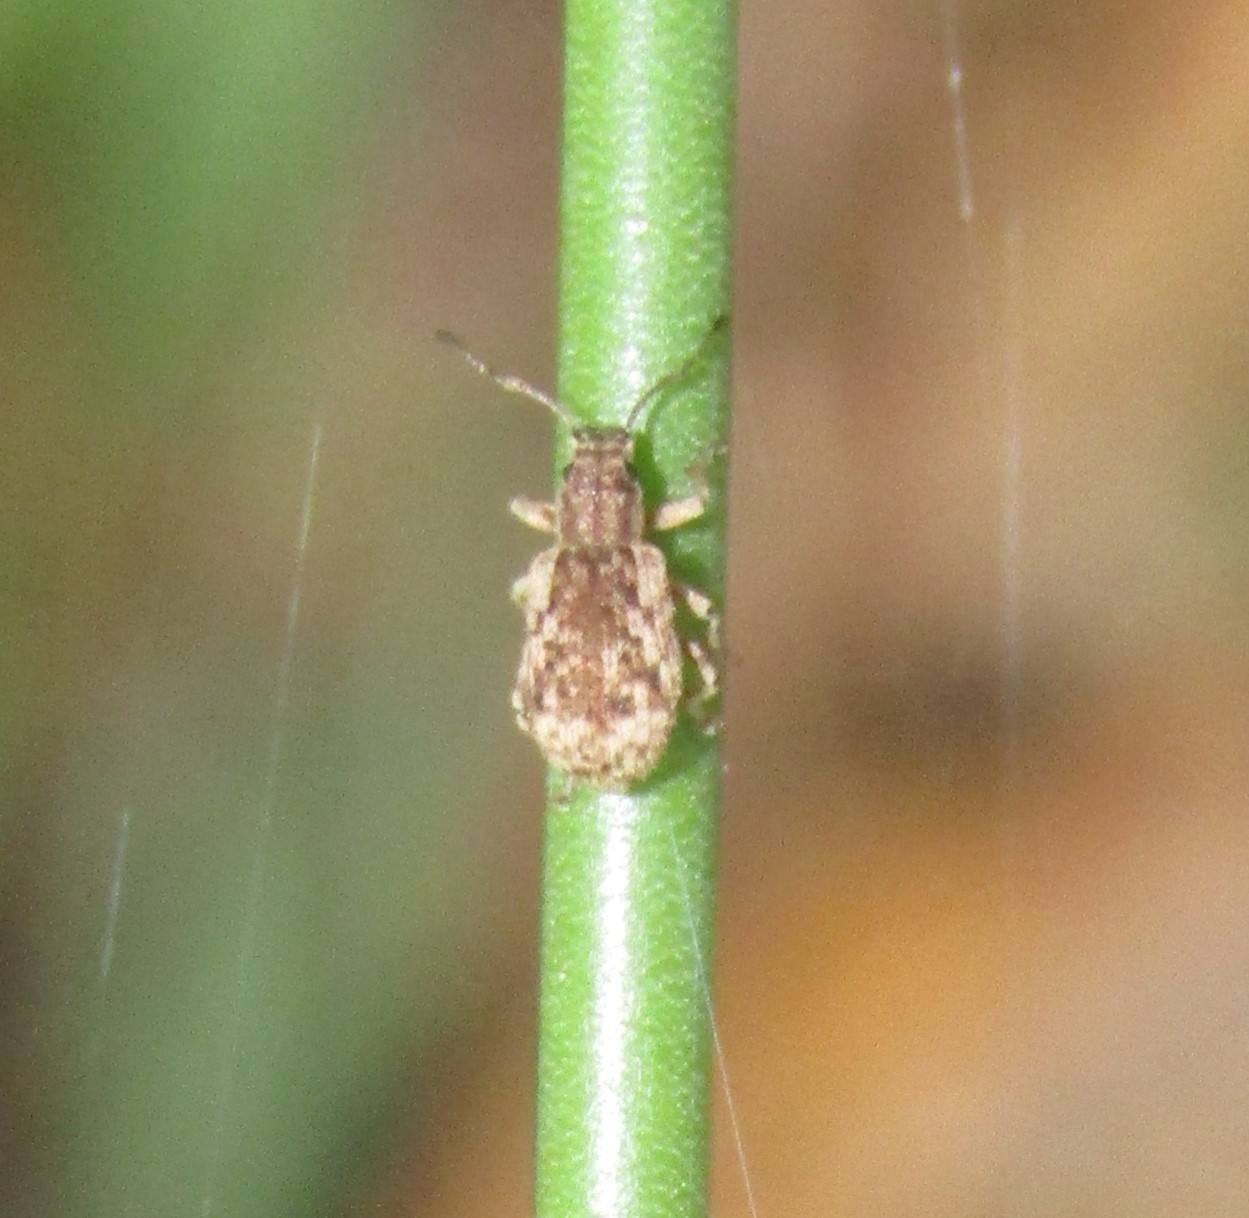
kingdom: Animalia
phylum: Arthropoda
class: Insecta
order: Coleoptera
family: Curculionidae
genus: Pseudoedophrys
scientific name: Pseudoedophrys hilleri
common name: Weevil
